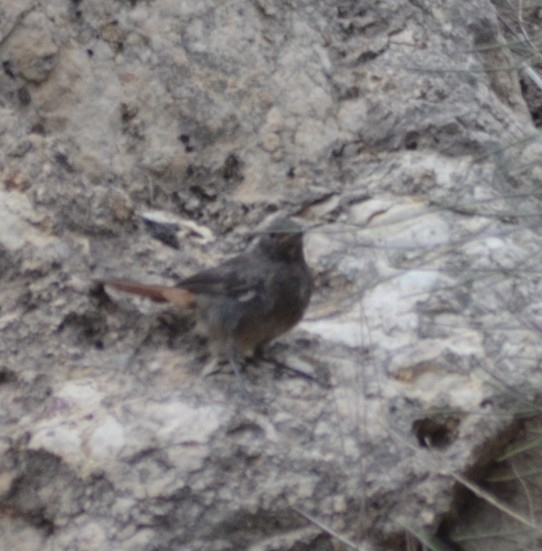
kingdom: Animalia
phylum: Chordata
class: Aves
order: Passeriformes
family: Muscicapidae
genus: Phoenicurus
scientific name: Phoenicurus ochruros
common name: Black redstart
